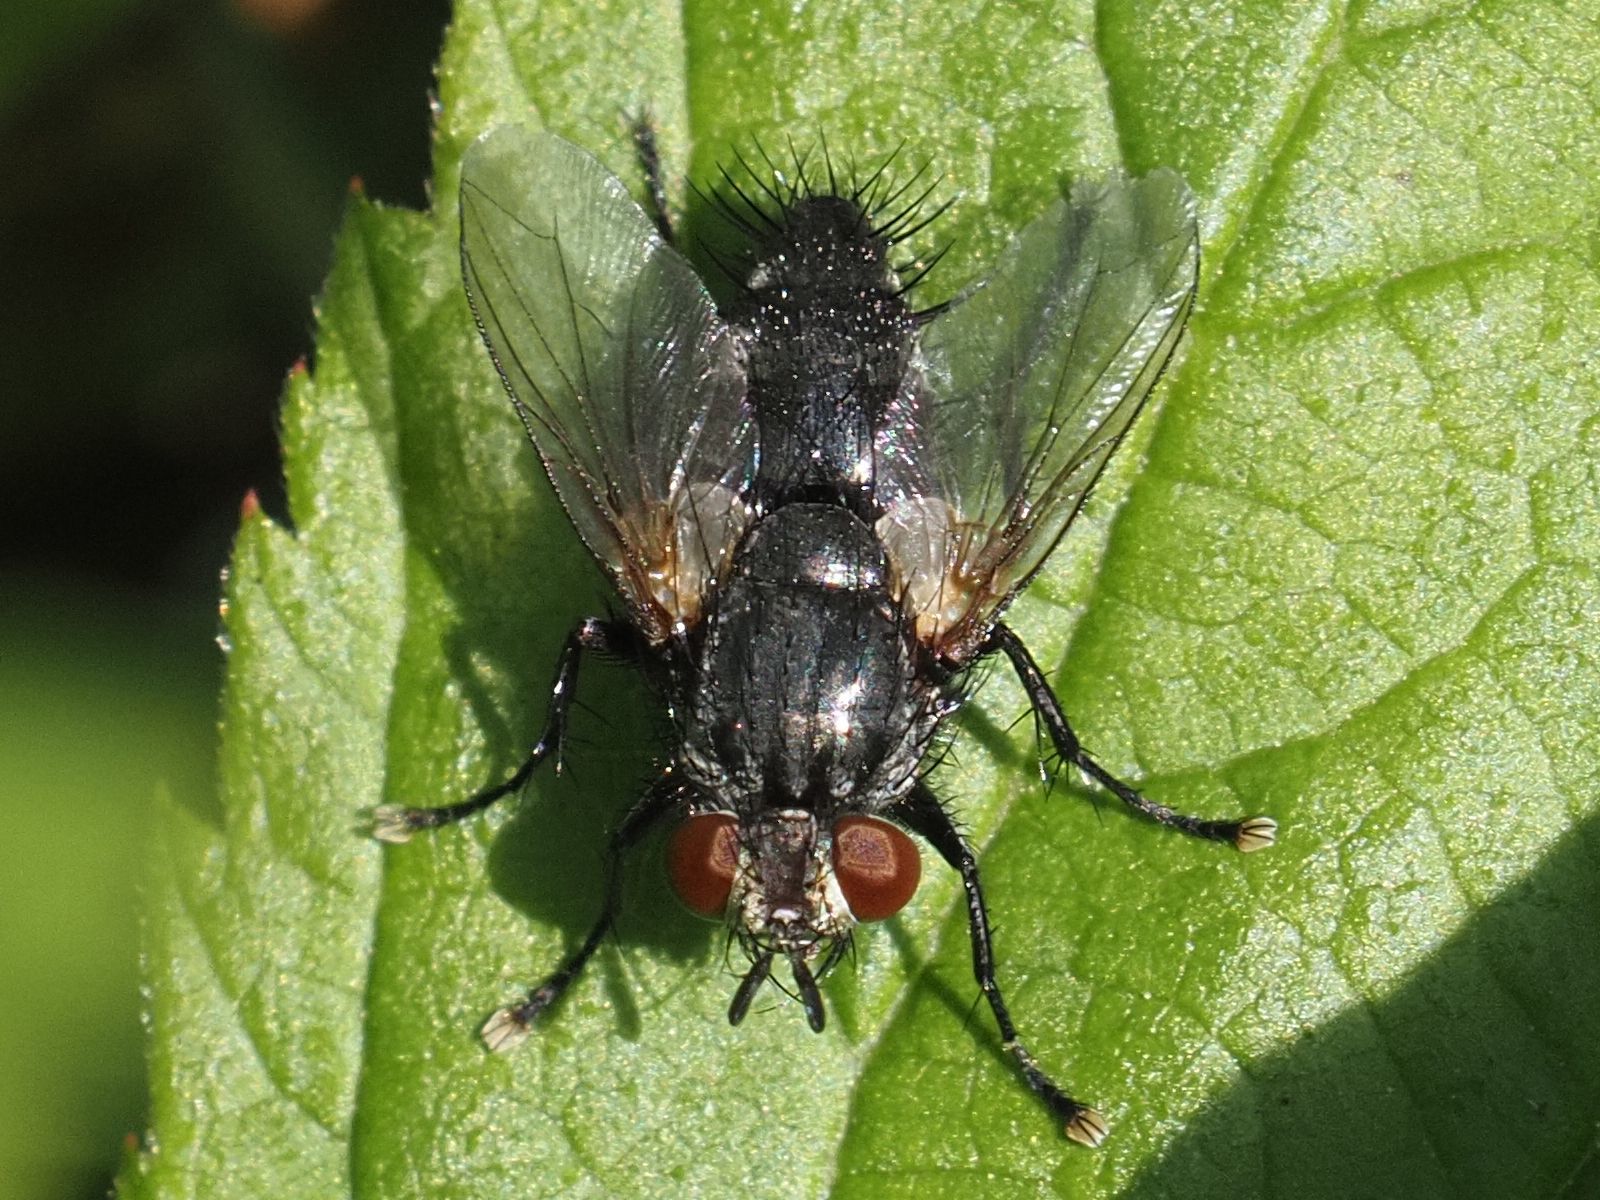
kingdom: Animalia
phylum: Arthropoda
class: Insecta
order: Diptera
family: Tachinidae
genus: Voria
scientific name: Voria ruralis
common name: Parasitic fly
